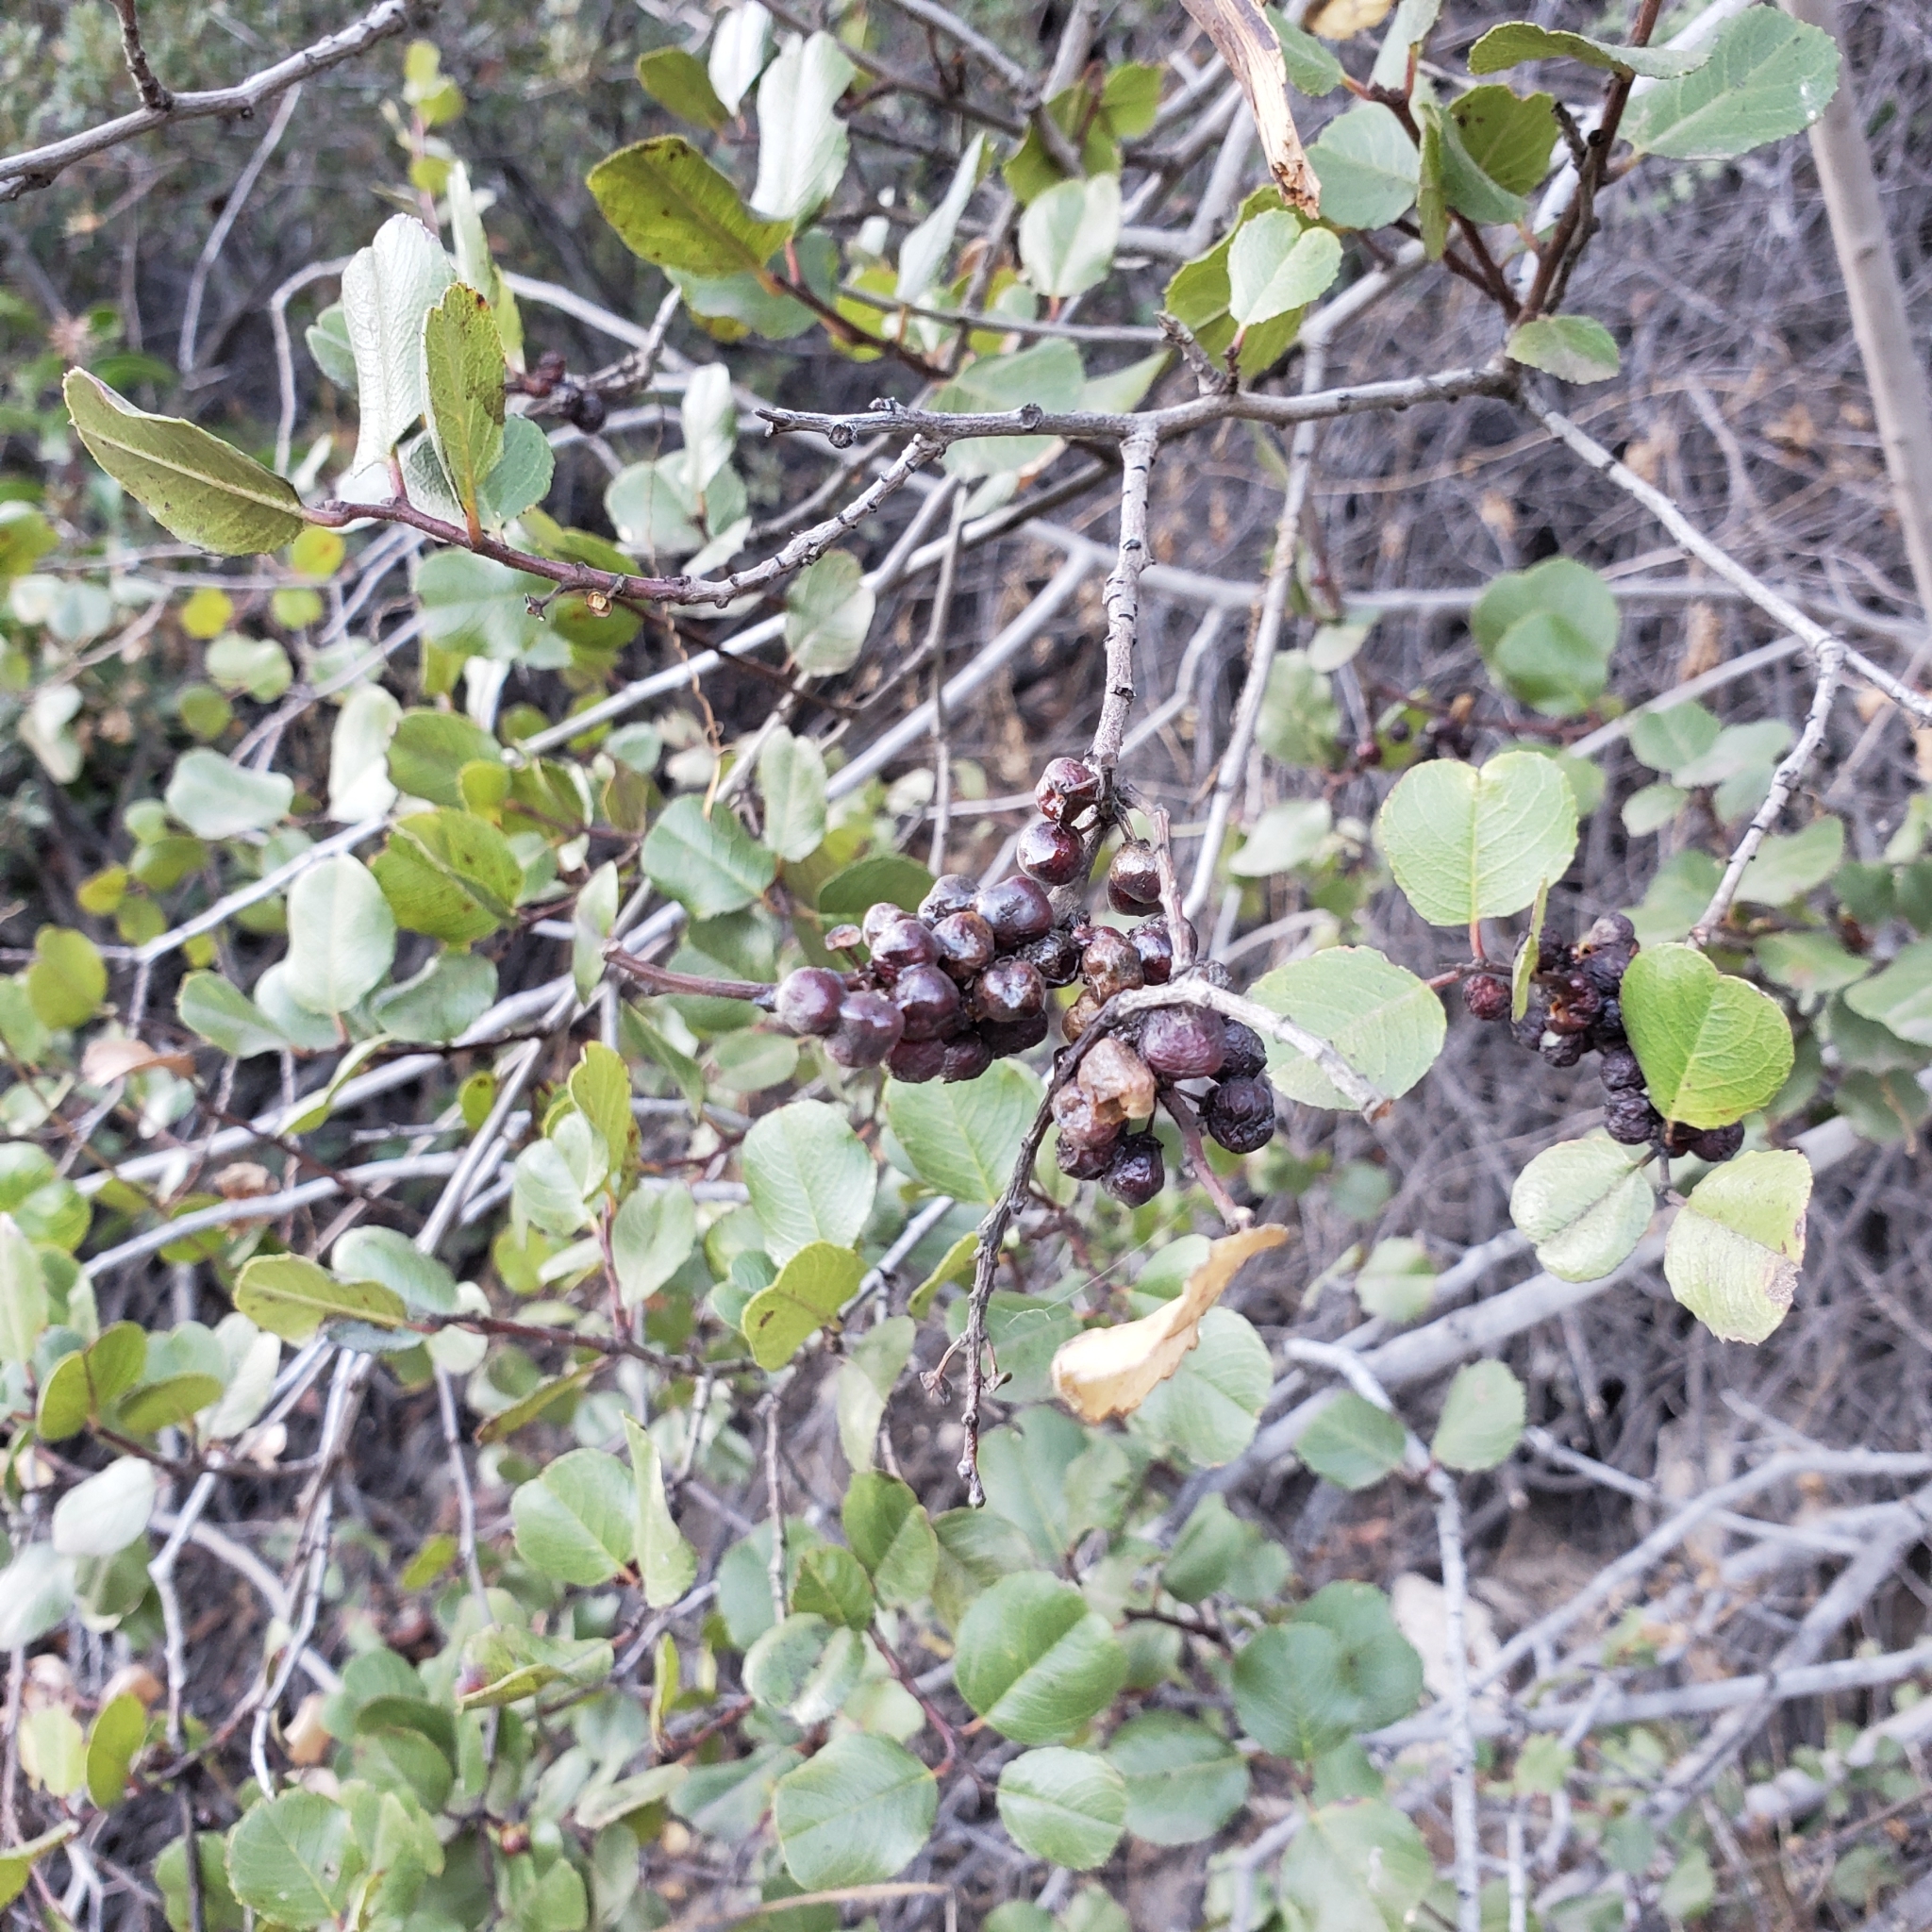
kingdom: Plantae
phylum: Tracheophyta
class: Magnoliopsida
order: Rosales
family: Rhamnaceae
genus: Endotropis
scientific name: Endotropis crocea
